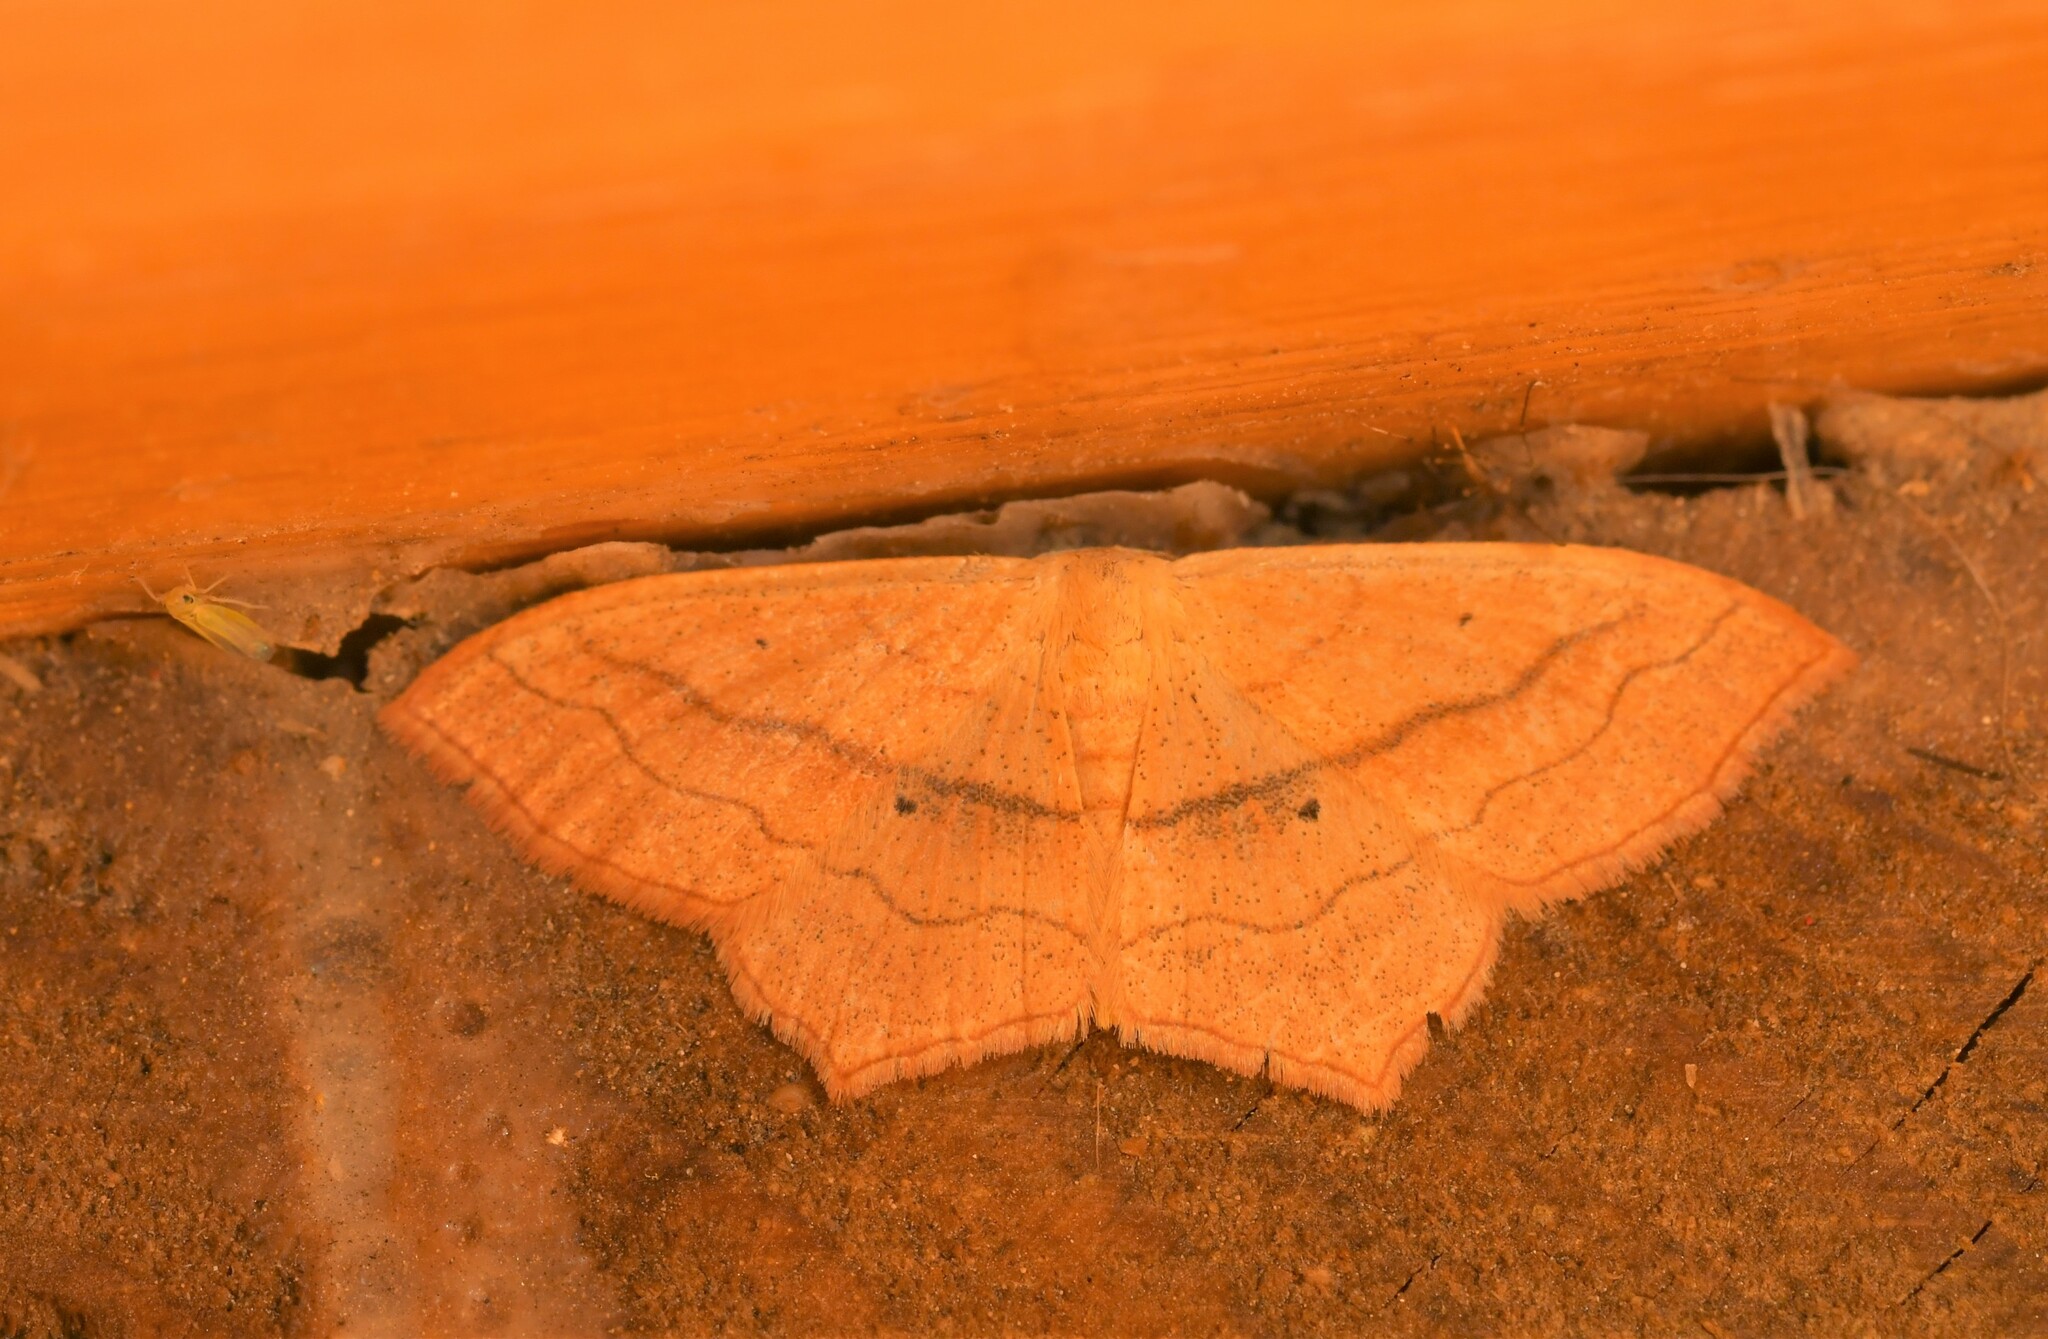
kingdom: Animalia
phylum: Arthropoda
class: Insecta
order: Lepidoptera
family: Geometridae
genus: Scopula
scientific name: Scopula imitaria
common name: Small blood-vein
